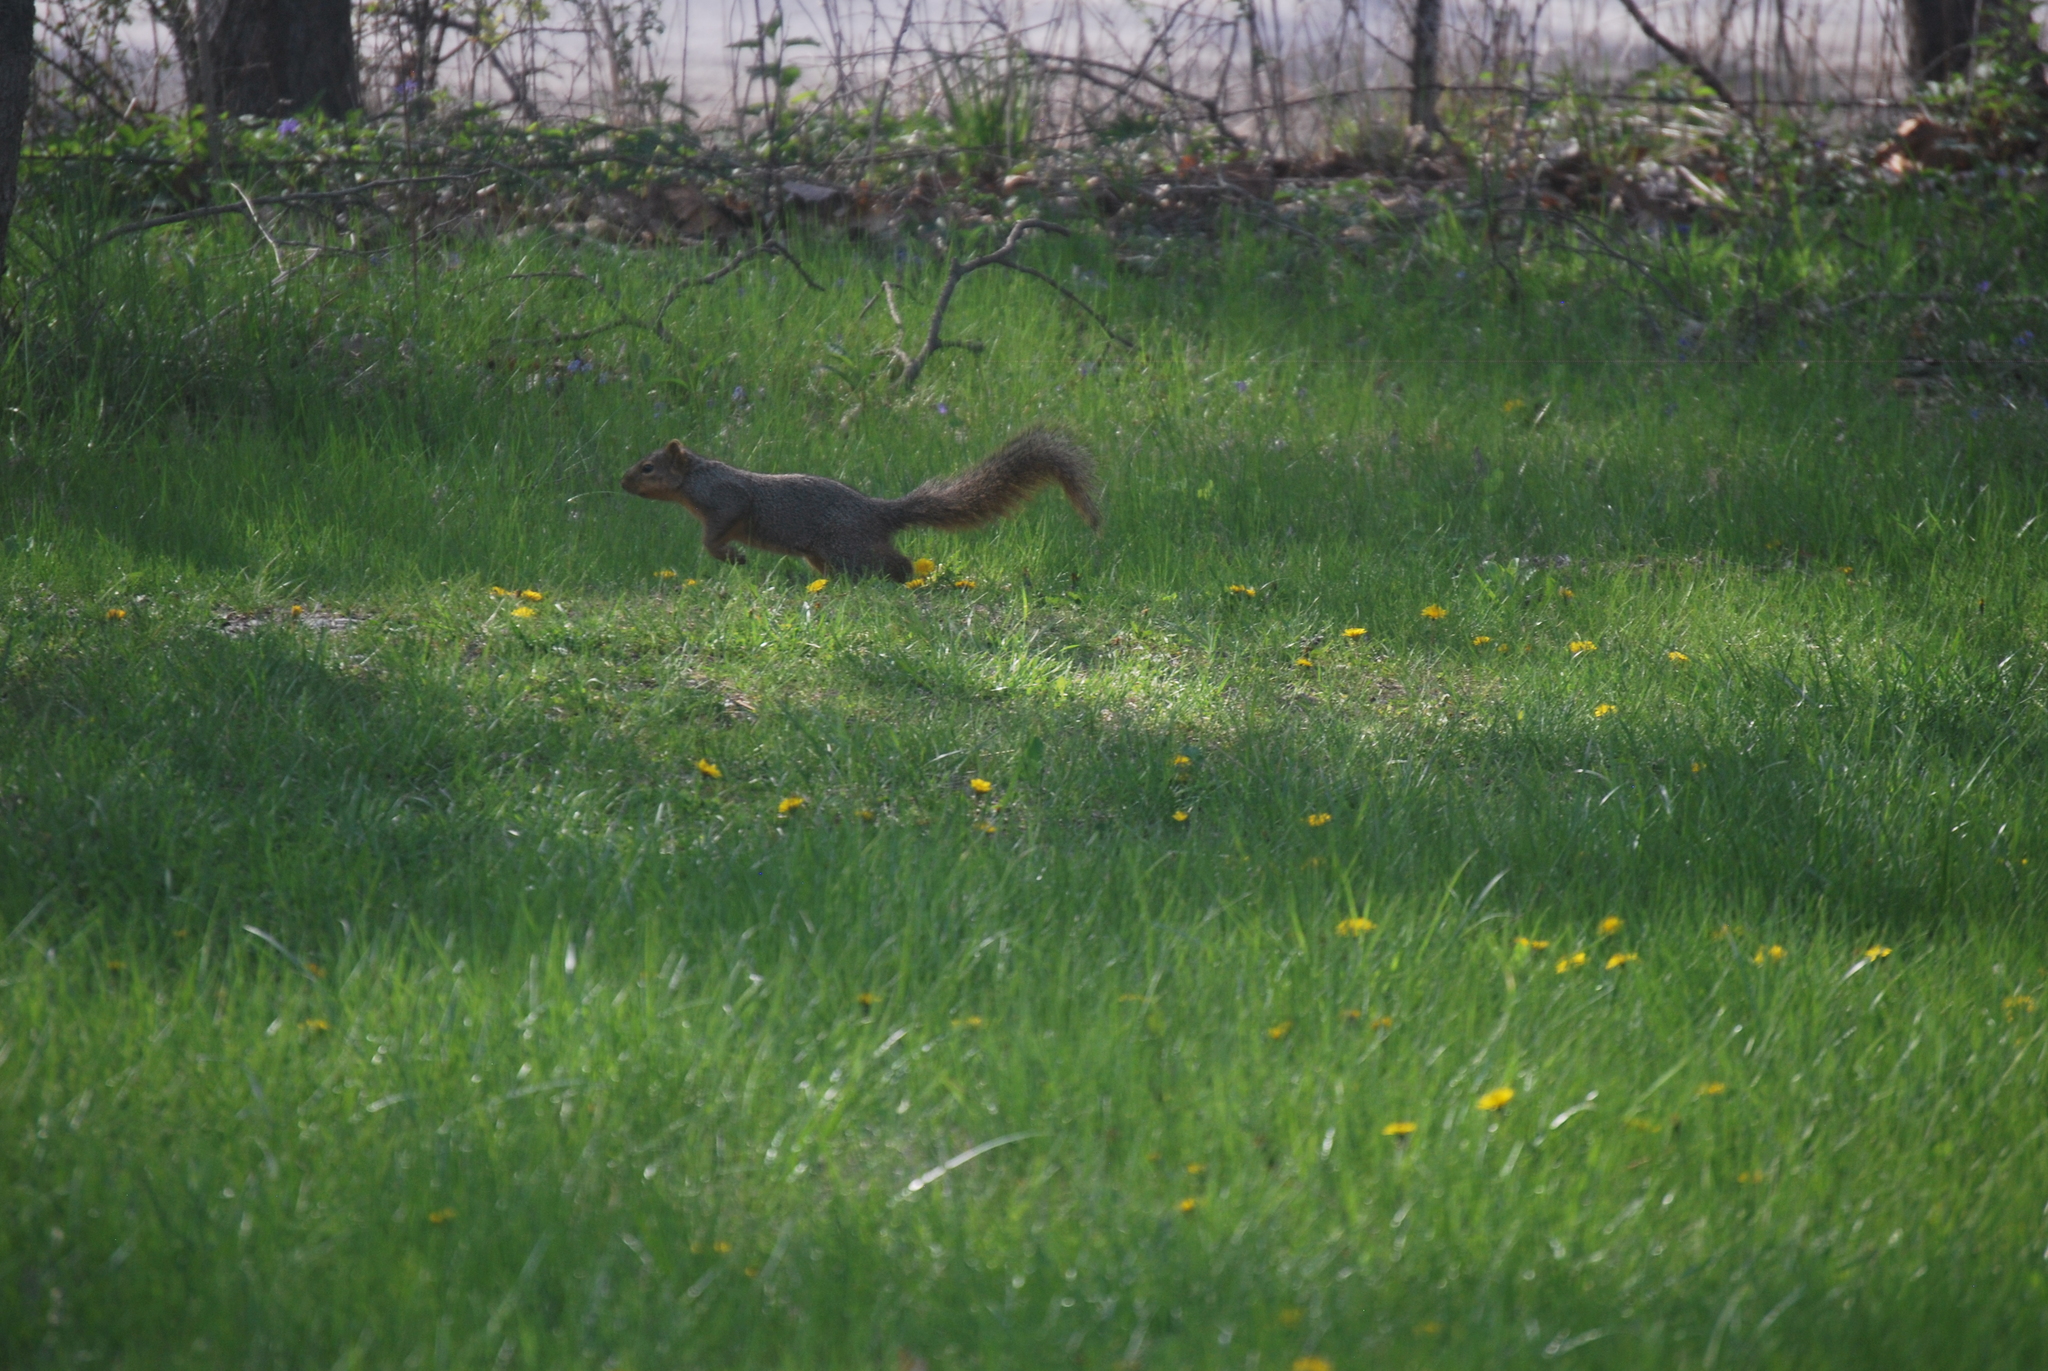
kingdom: Animalia
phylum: Chordata
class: Mammalia
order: Rodentia
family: Sciuridae
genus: Sciurus
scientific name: Sciurus niger
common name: Fox squirrel
